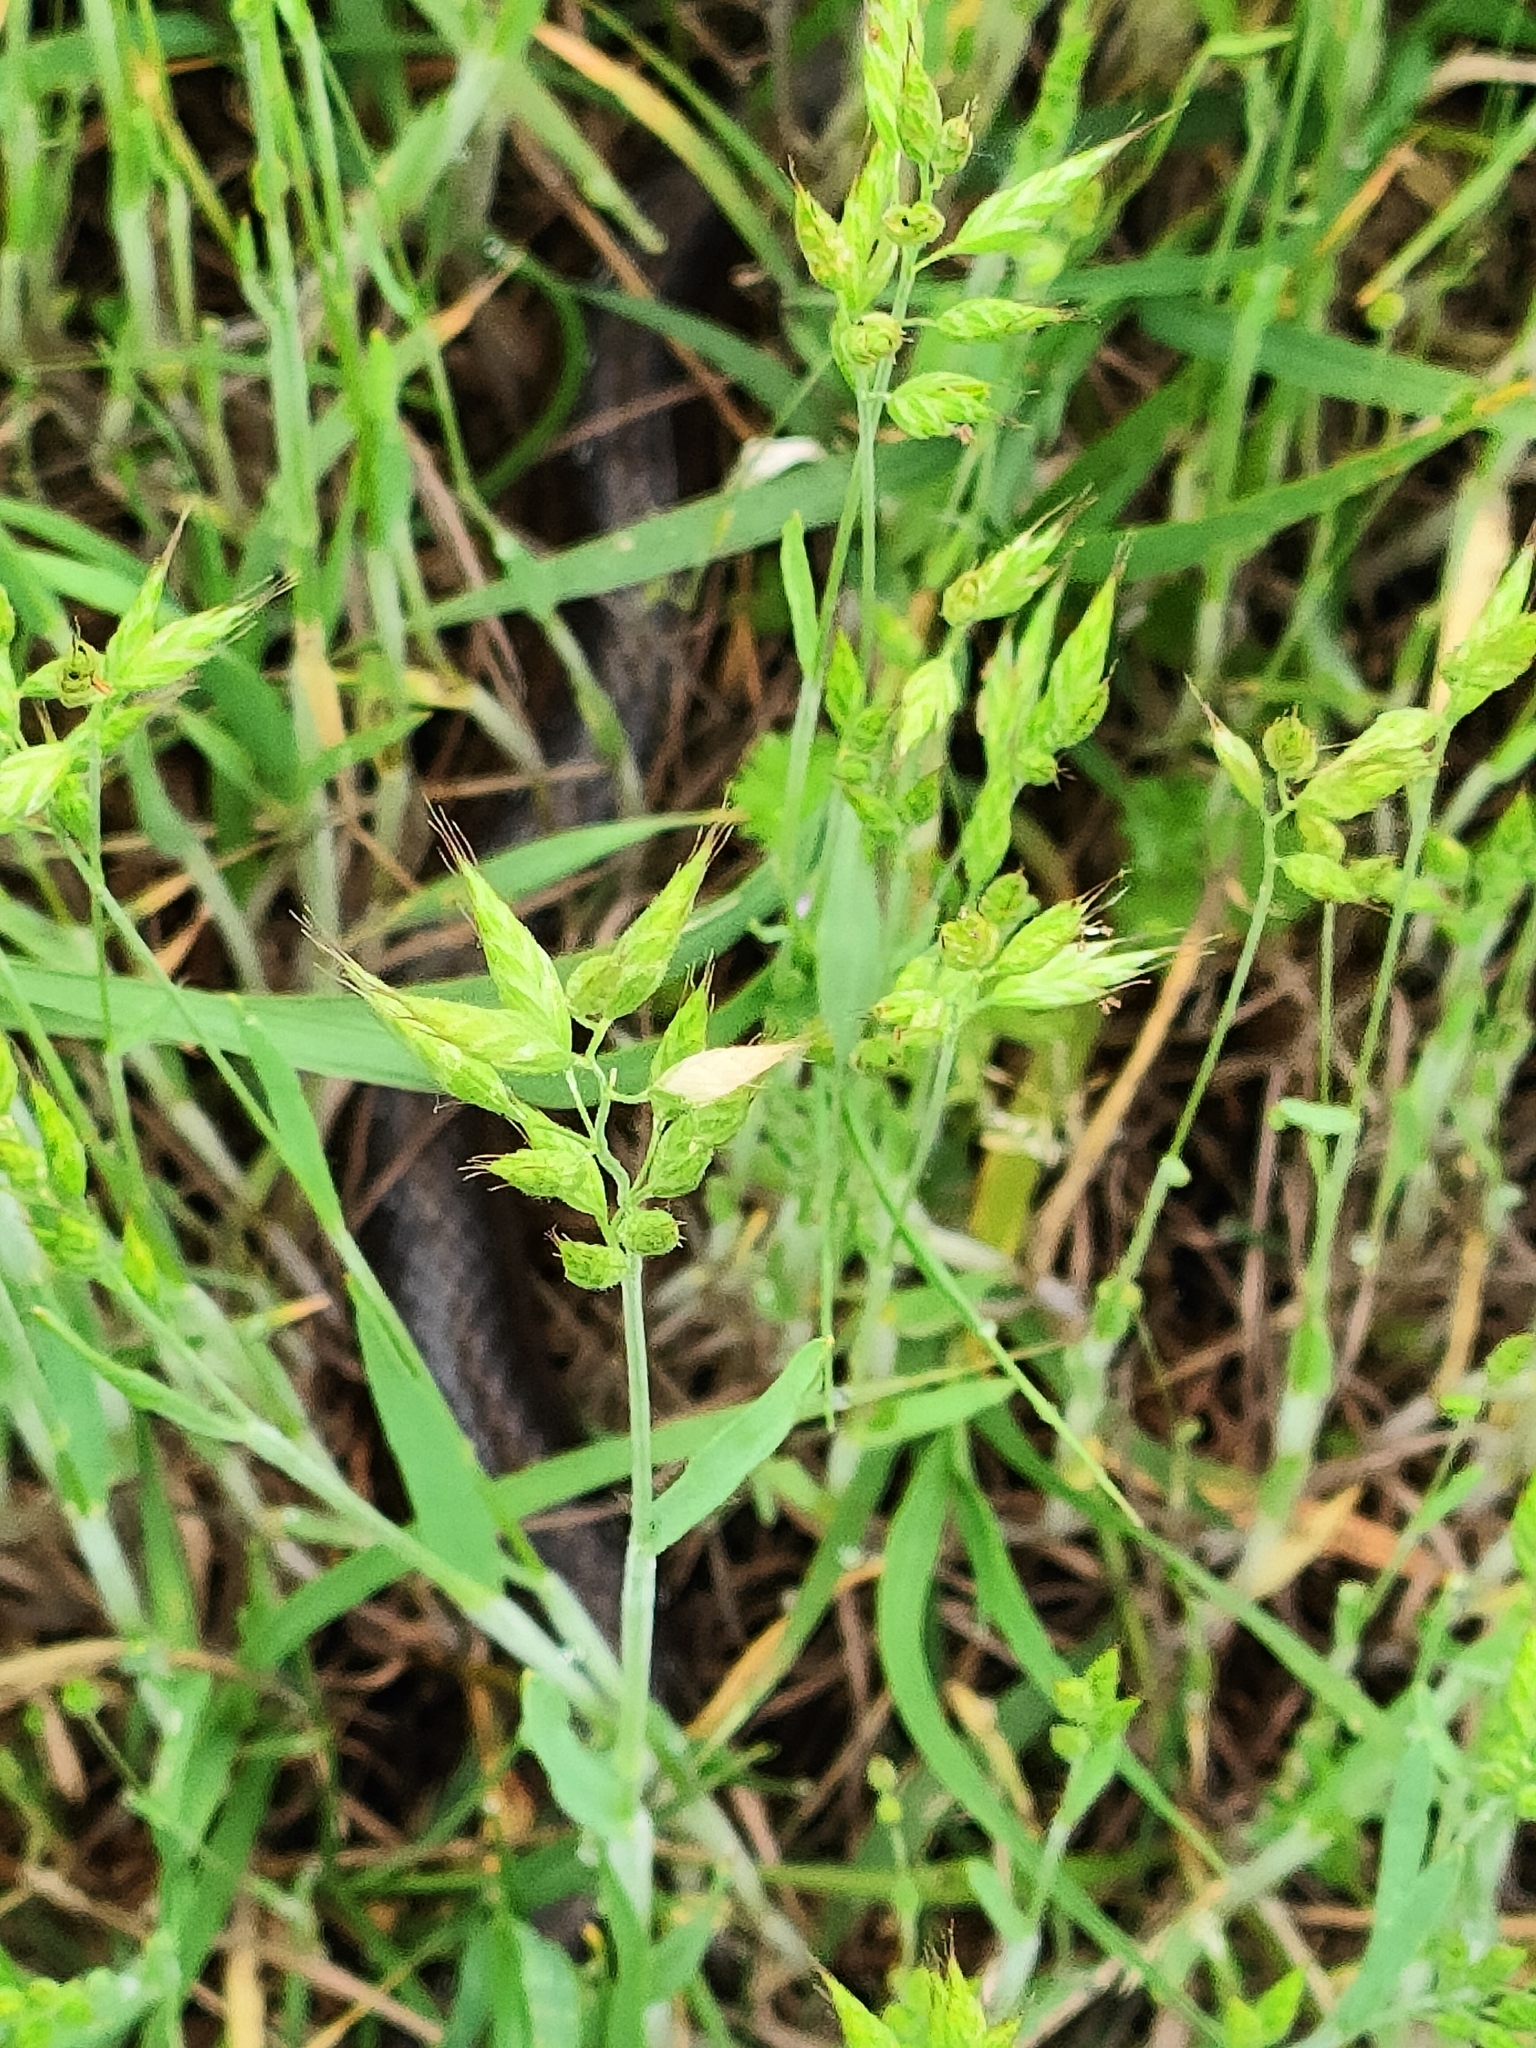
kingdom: Animalia
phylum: Chordata
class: Squamata
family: Colubridae
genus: Zamenis
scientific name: Zamenis longissimus
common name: Aesculapean snake
